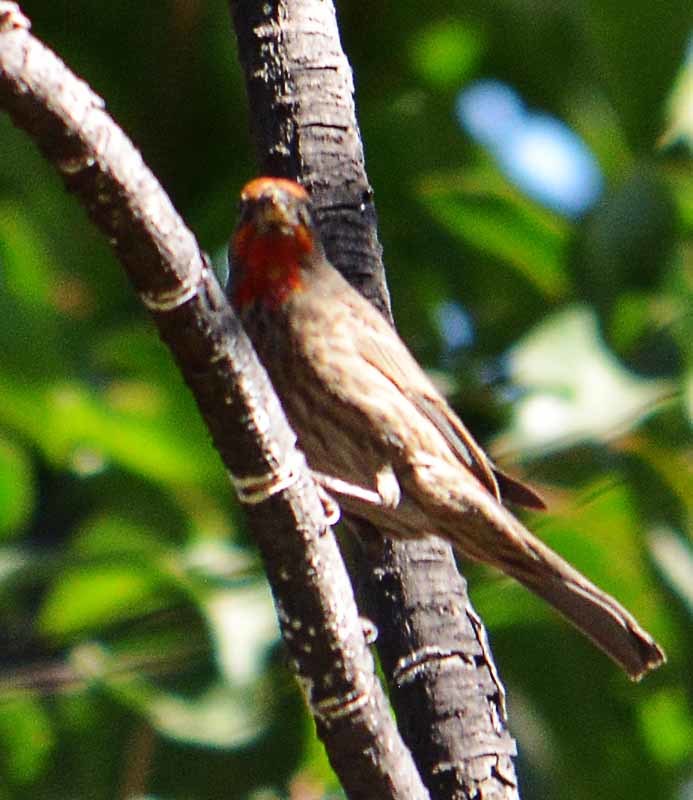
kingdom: Animalia
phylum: Chordata
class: Aves
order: Passeriformes
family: Fringillidae
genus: Haemorhous
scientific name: Haemorhous mexicanus
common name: House finch
